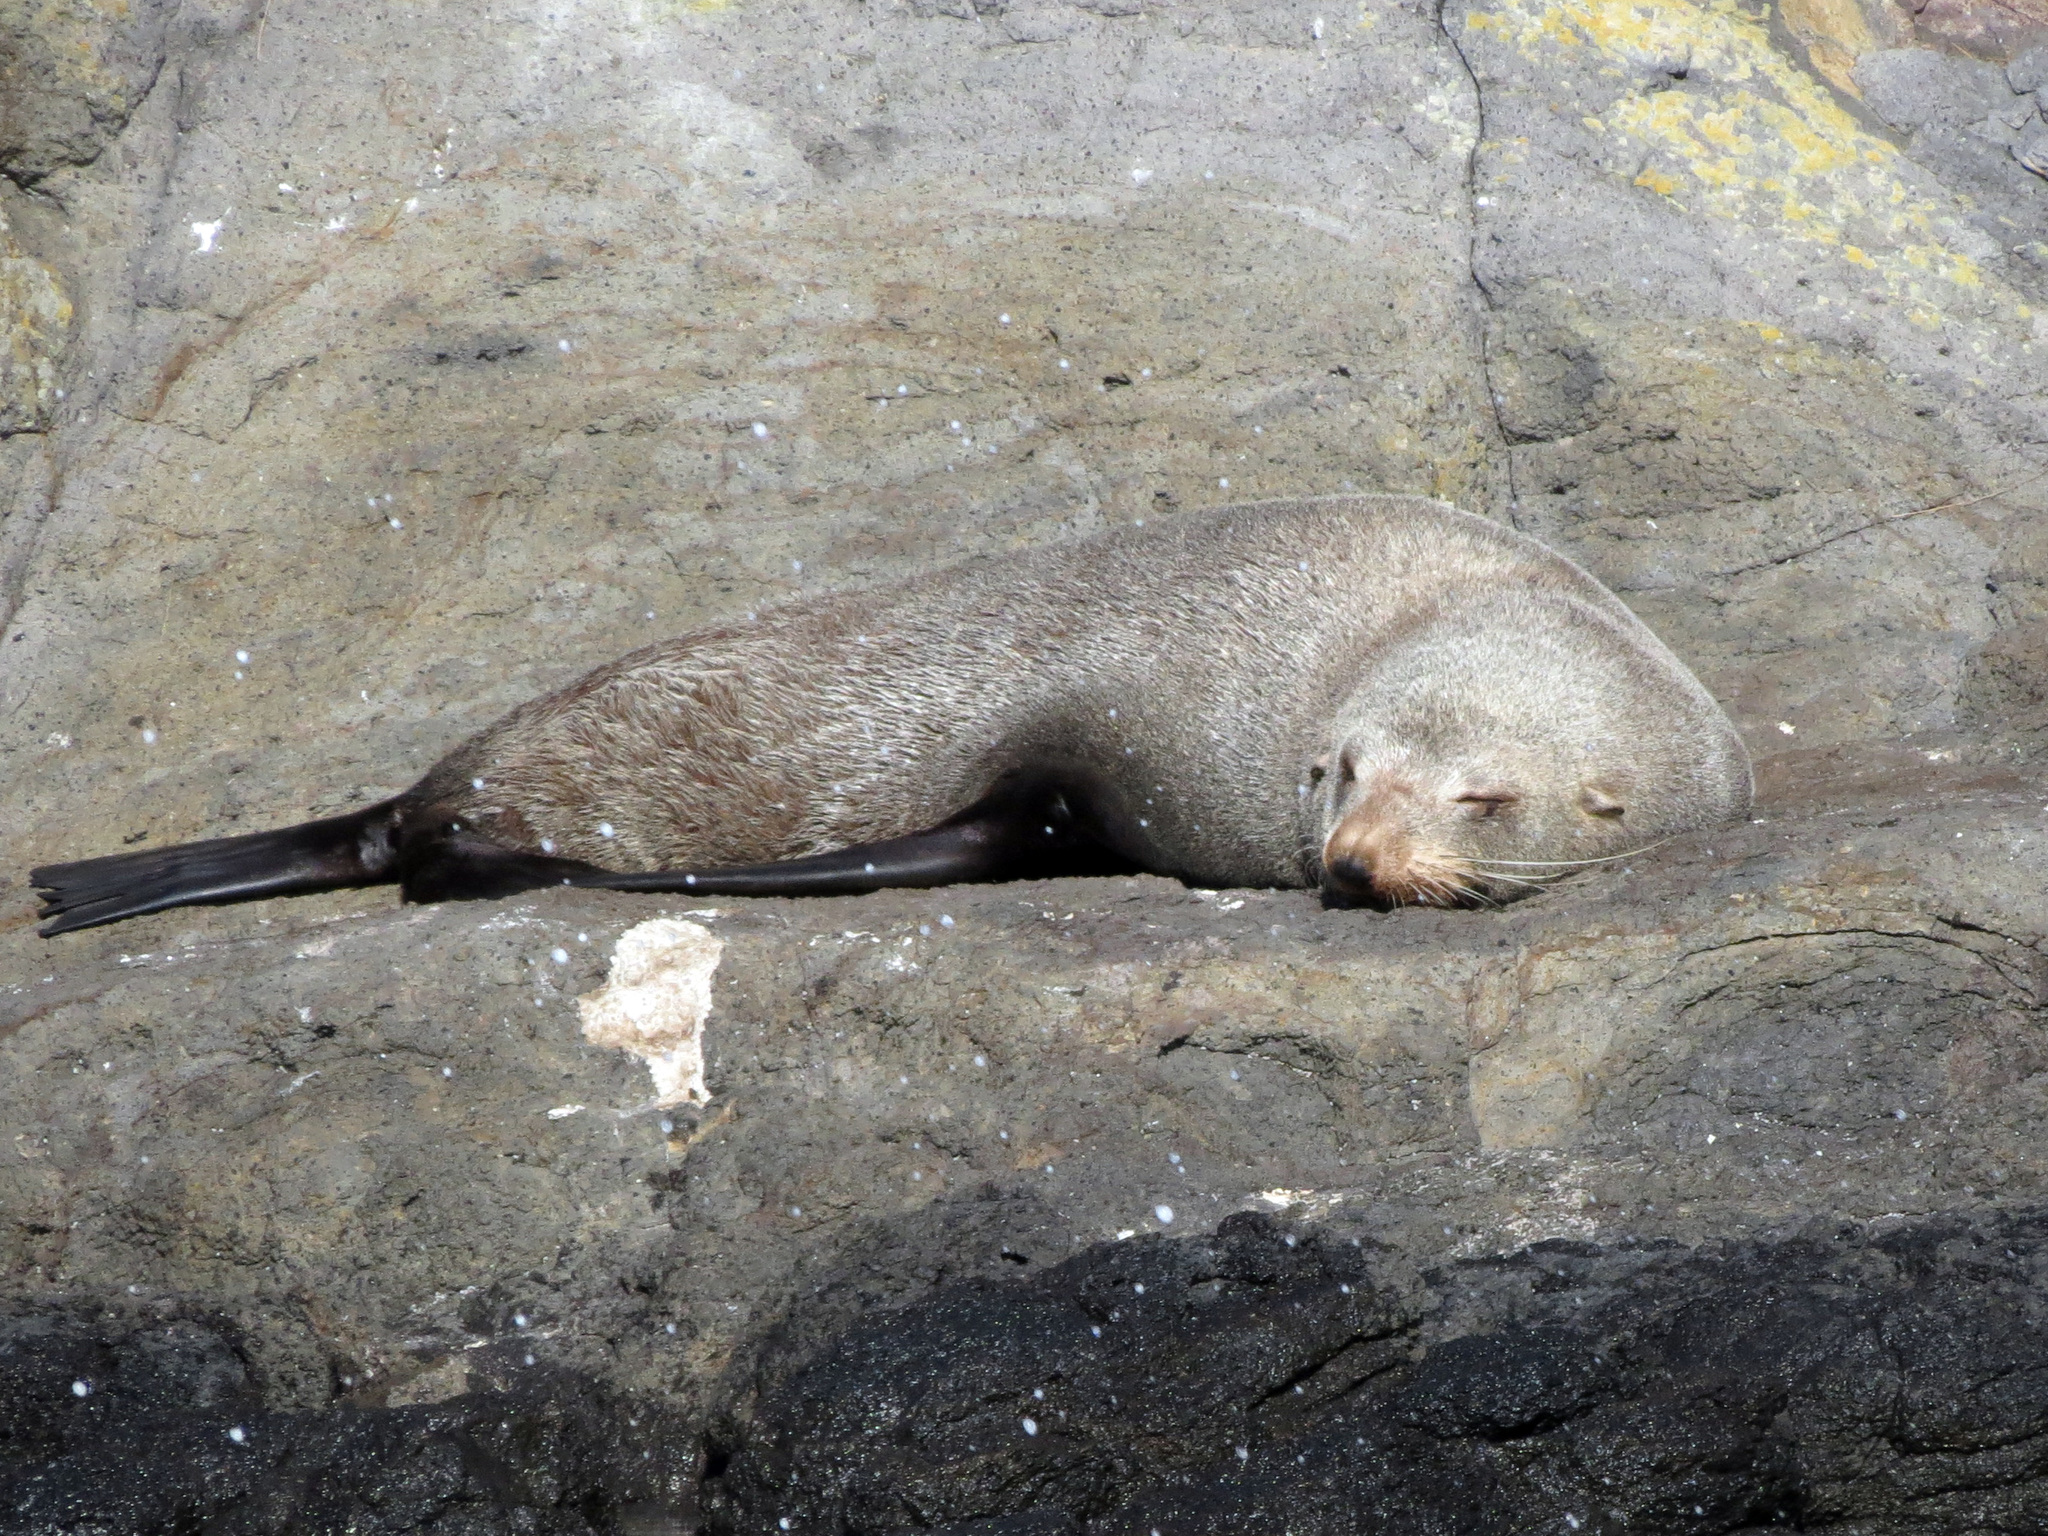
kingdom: Animalia
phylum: Chordata
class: Mammalia
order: Carnivora
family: Otariidae
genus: Arctocephalus
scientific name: Arctocephalus forsteri
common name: New zealand fur seal
